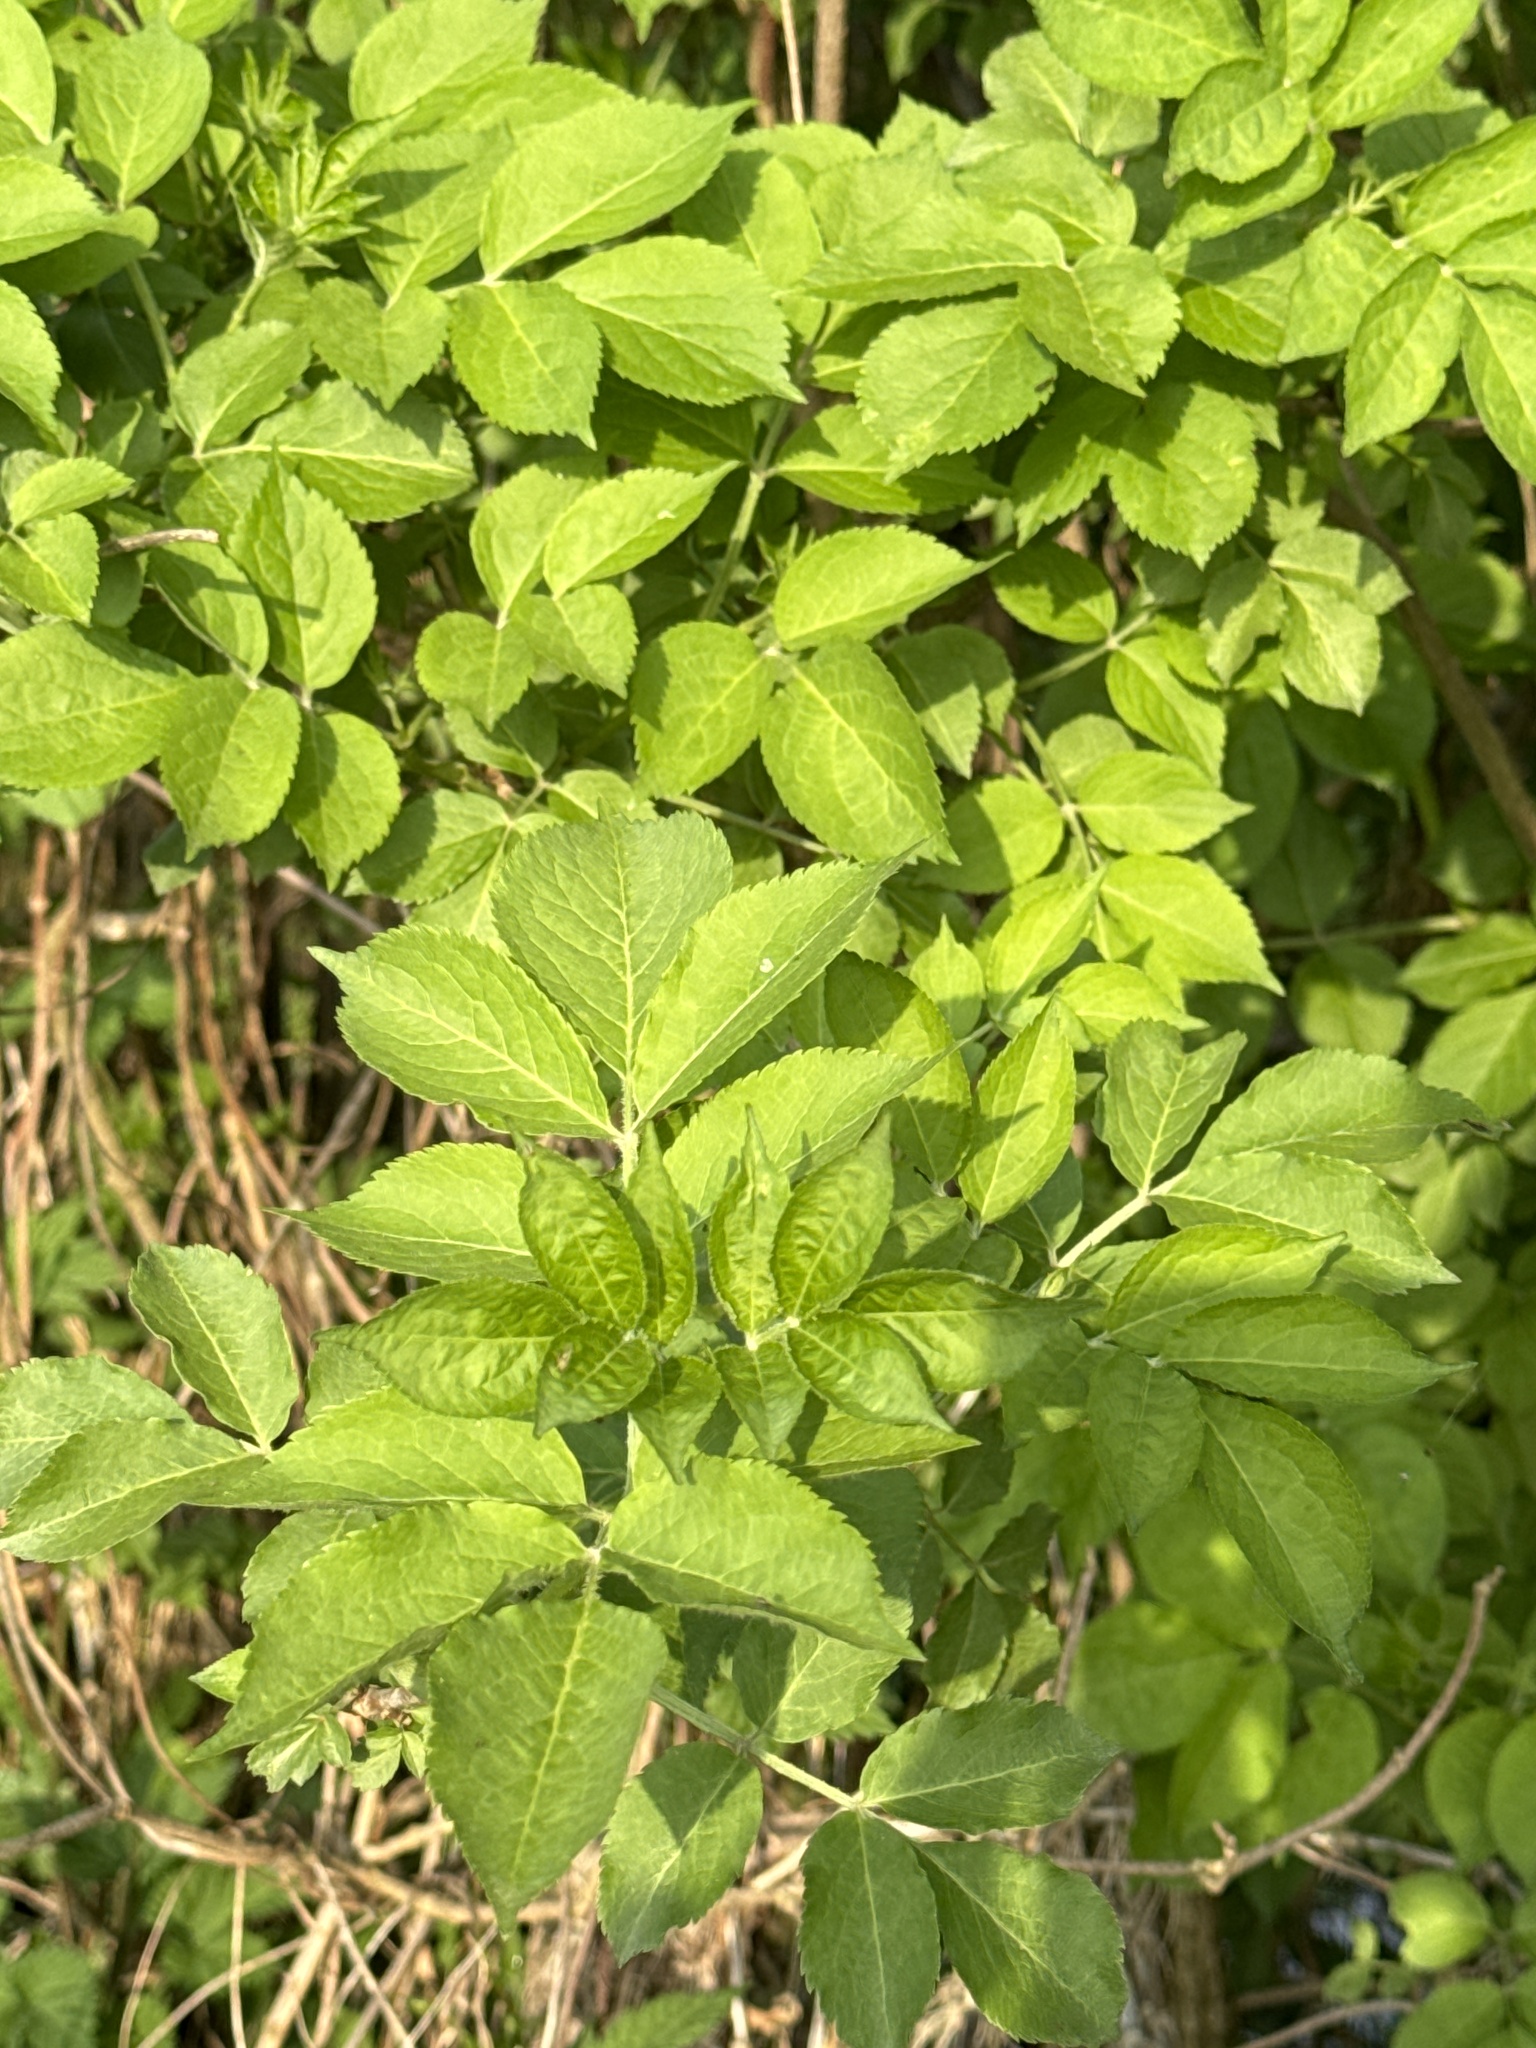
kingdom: Plantae
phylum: Tracheophyta
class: Magnoliopsida
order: Dipsacales
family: Viburnaceae
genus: Sambucus
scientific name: Sambucus nigra
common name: Elder
